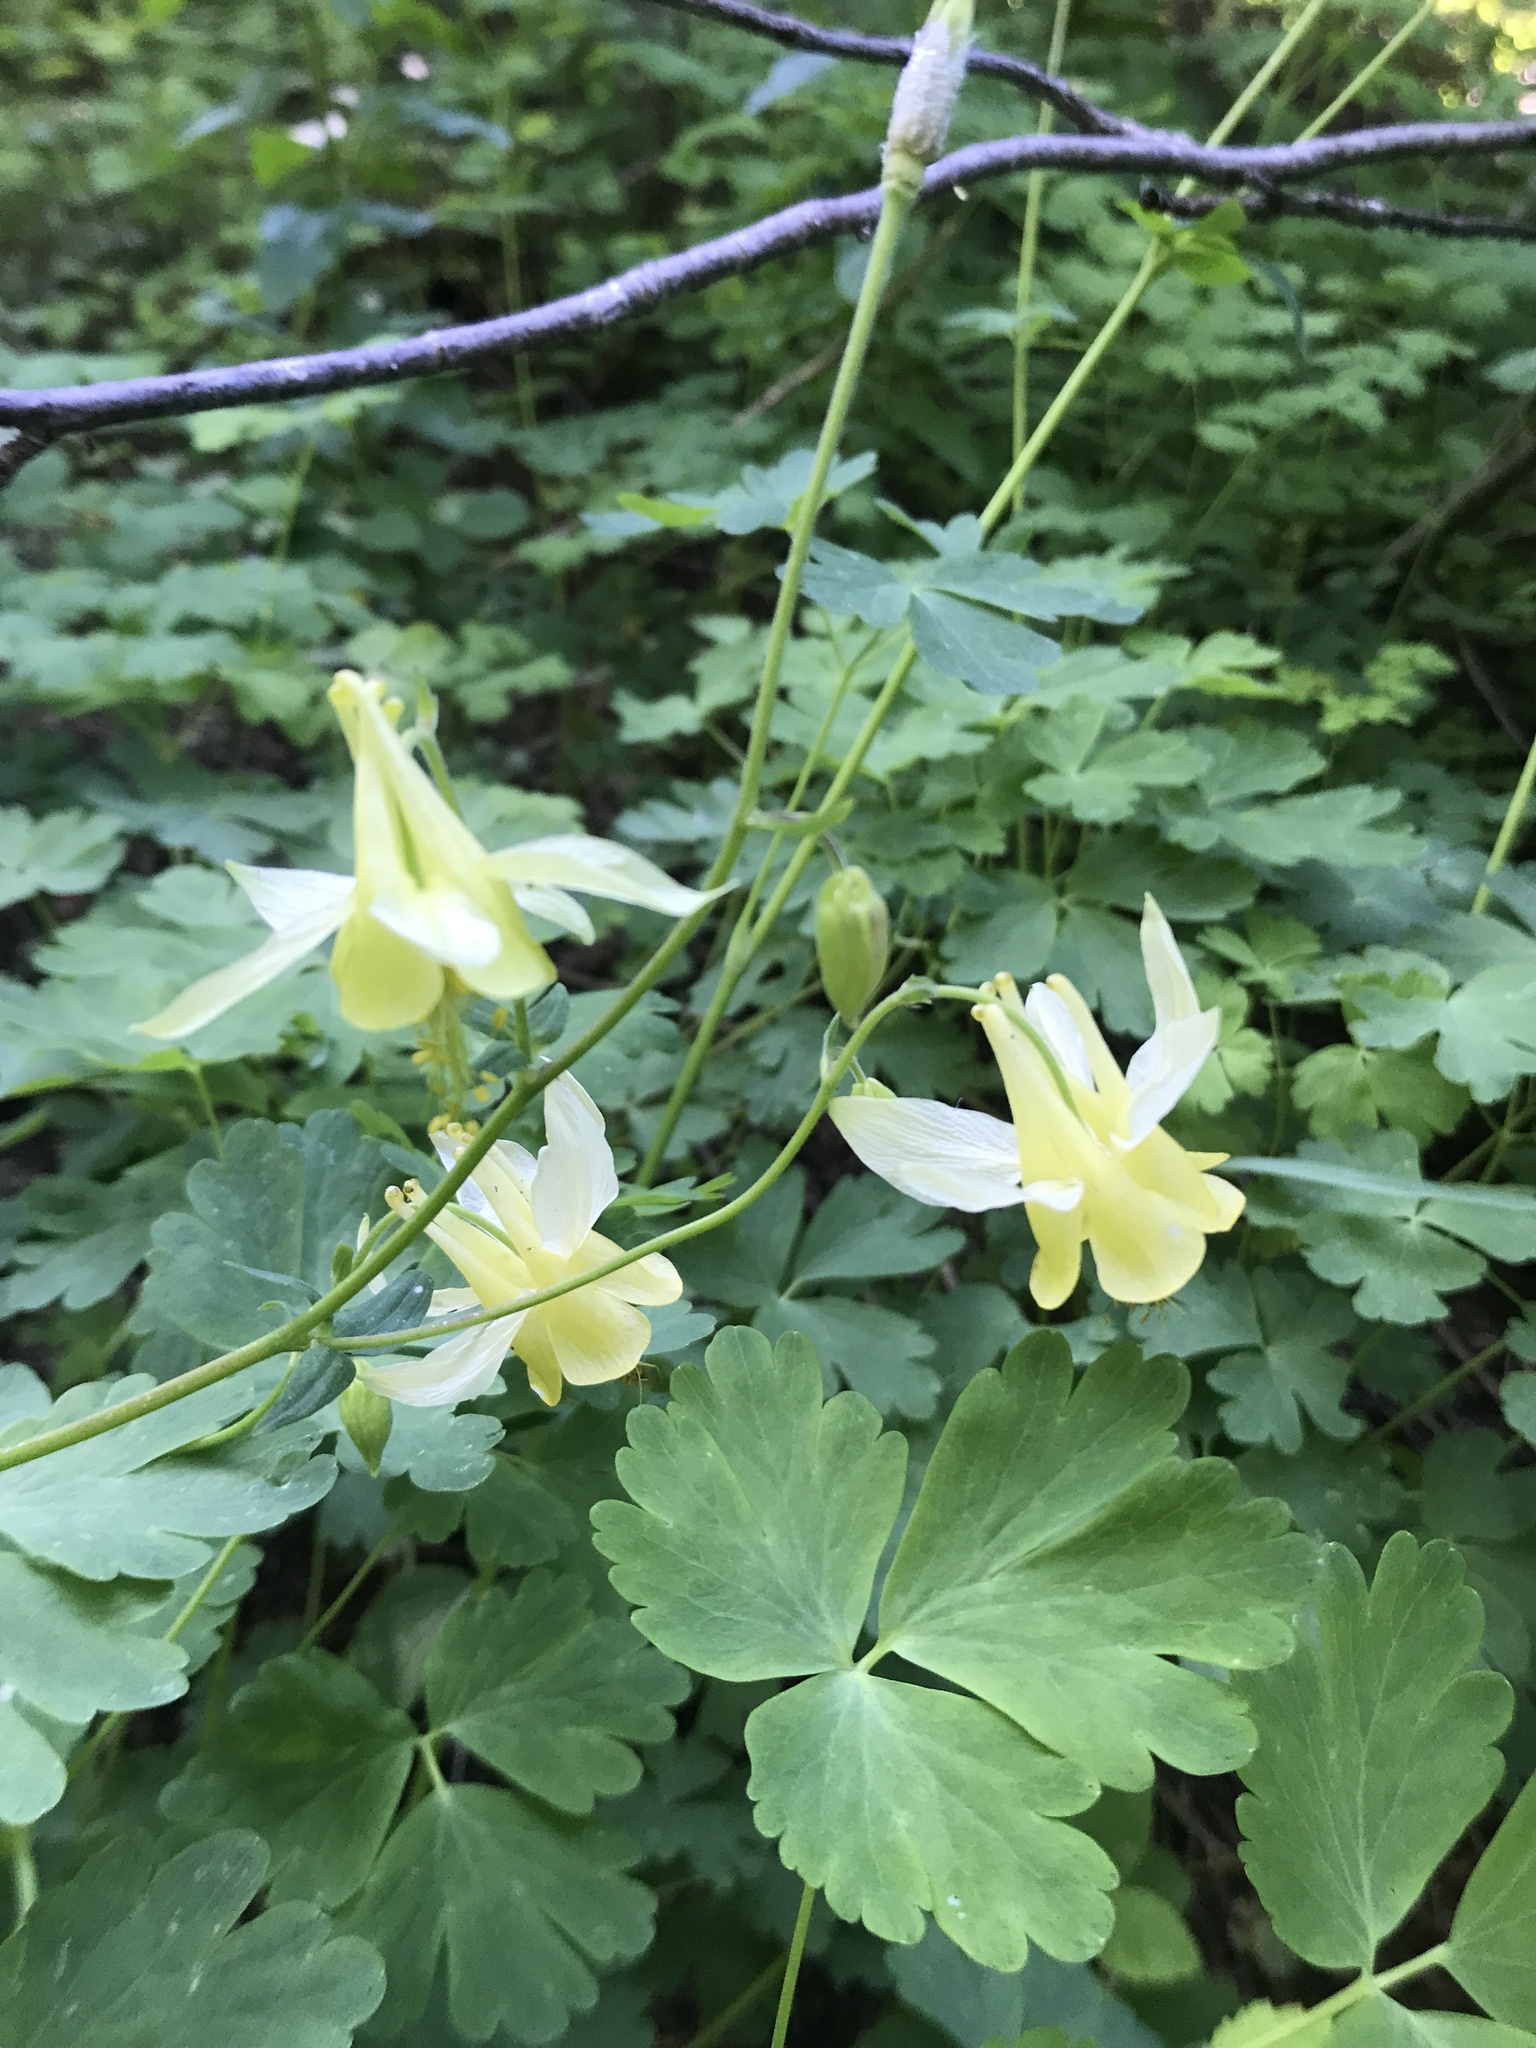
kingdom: Plantae
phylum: Tracheophyta
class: Magnoliopsida
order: Ranunculales
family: Ranunculaceae
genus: Aquilegia
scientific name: Aquilegia flavescens
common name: Yellow columbine
